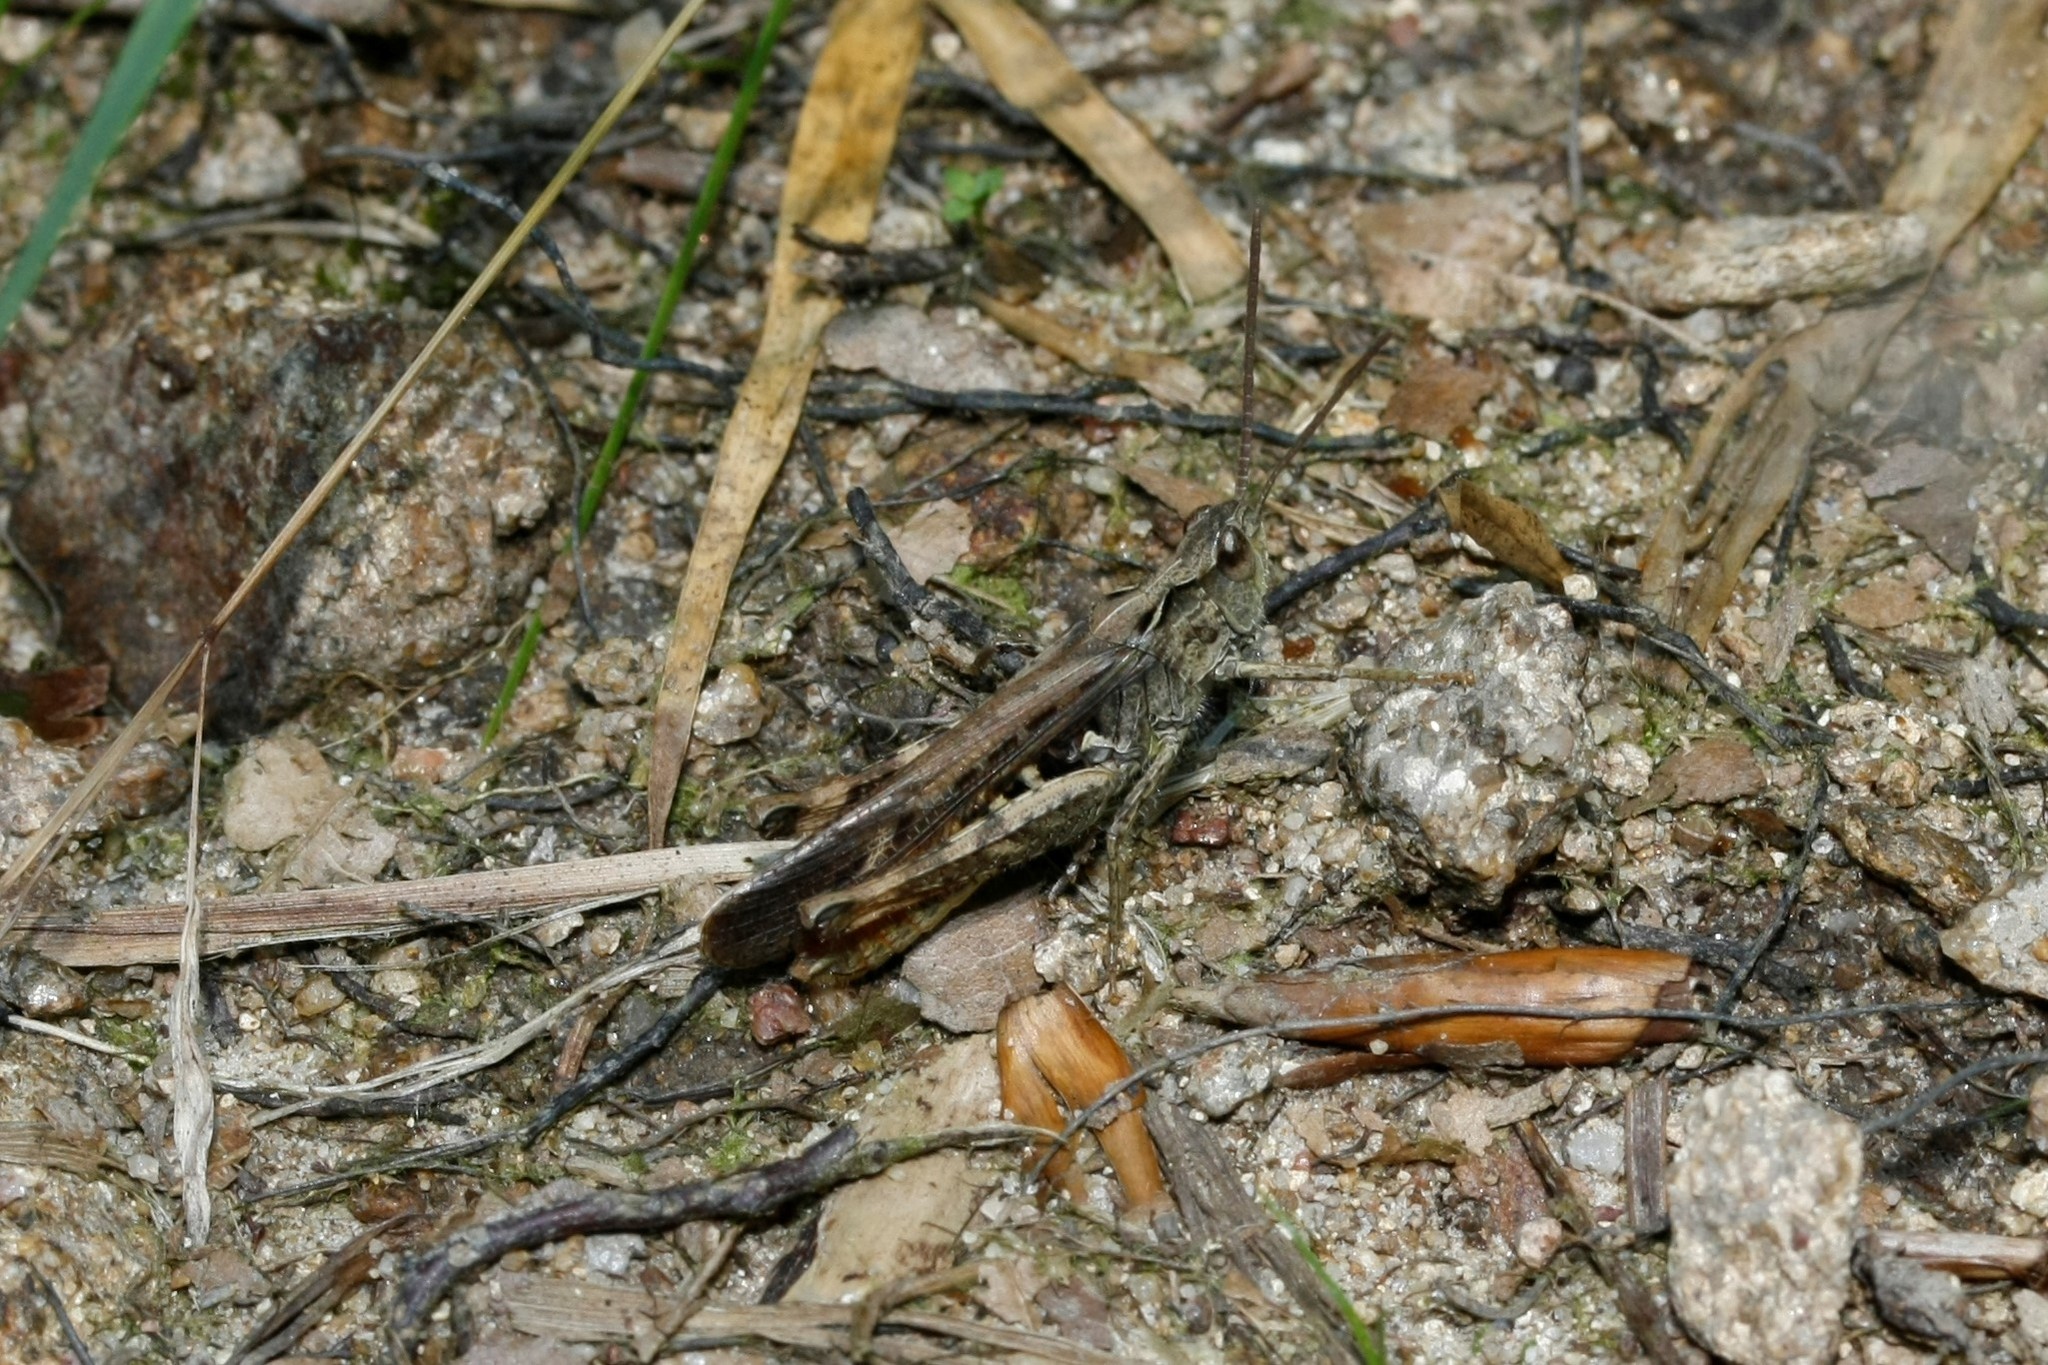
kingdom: Animalia
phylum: Arthropoda
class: Insecta
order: Orthoptera
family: Acrididae
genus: Chorthippus
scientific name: Chorthippus brunneus
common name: Field grasshopper
